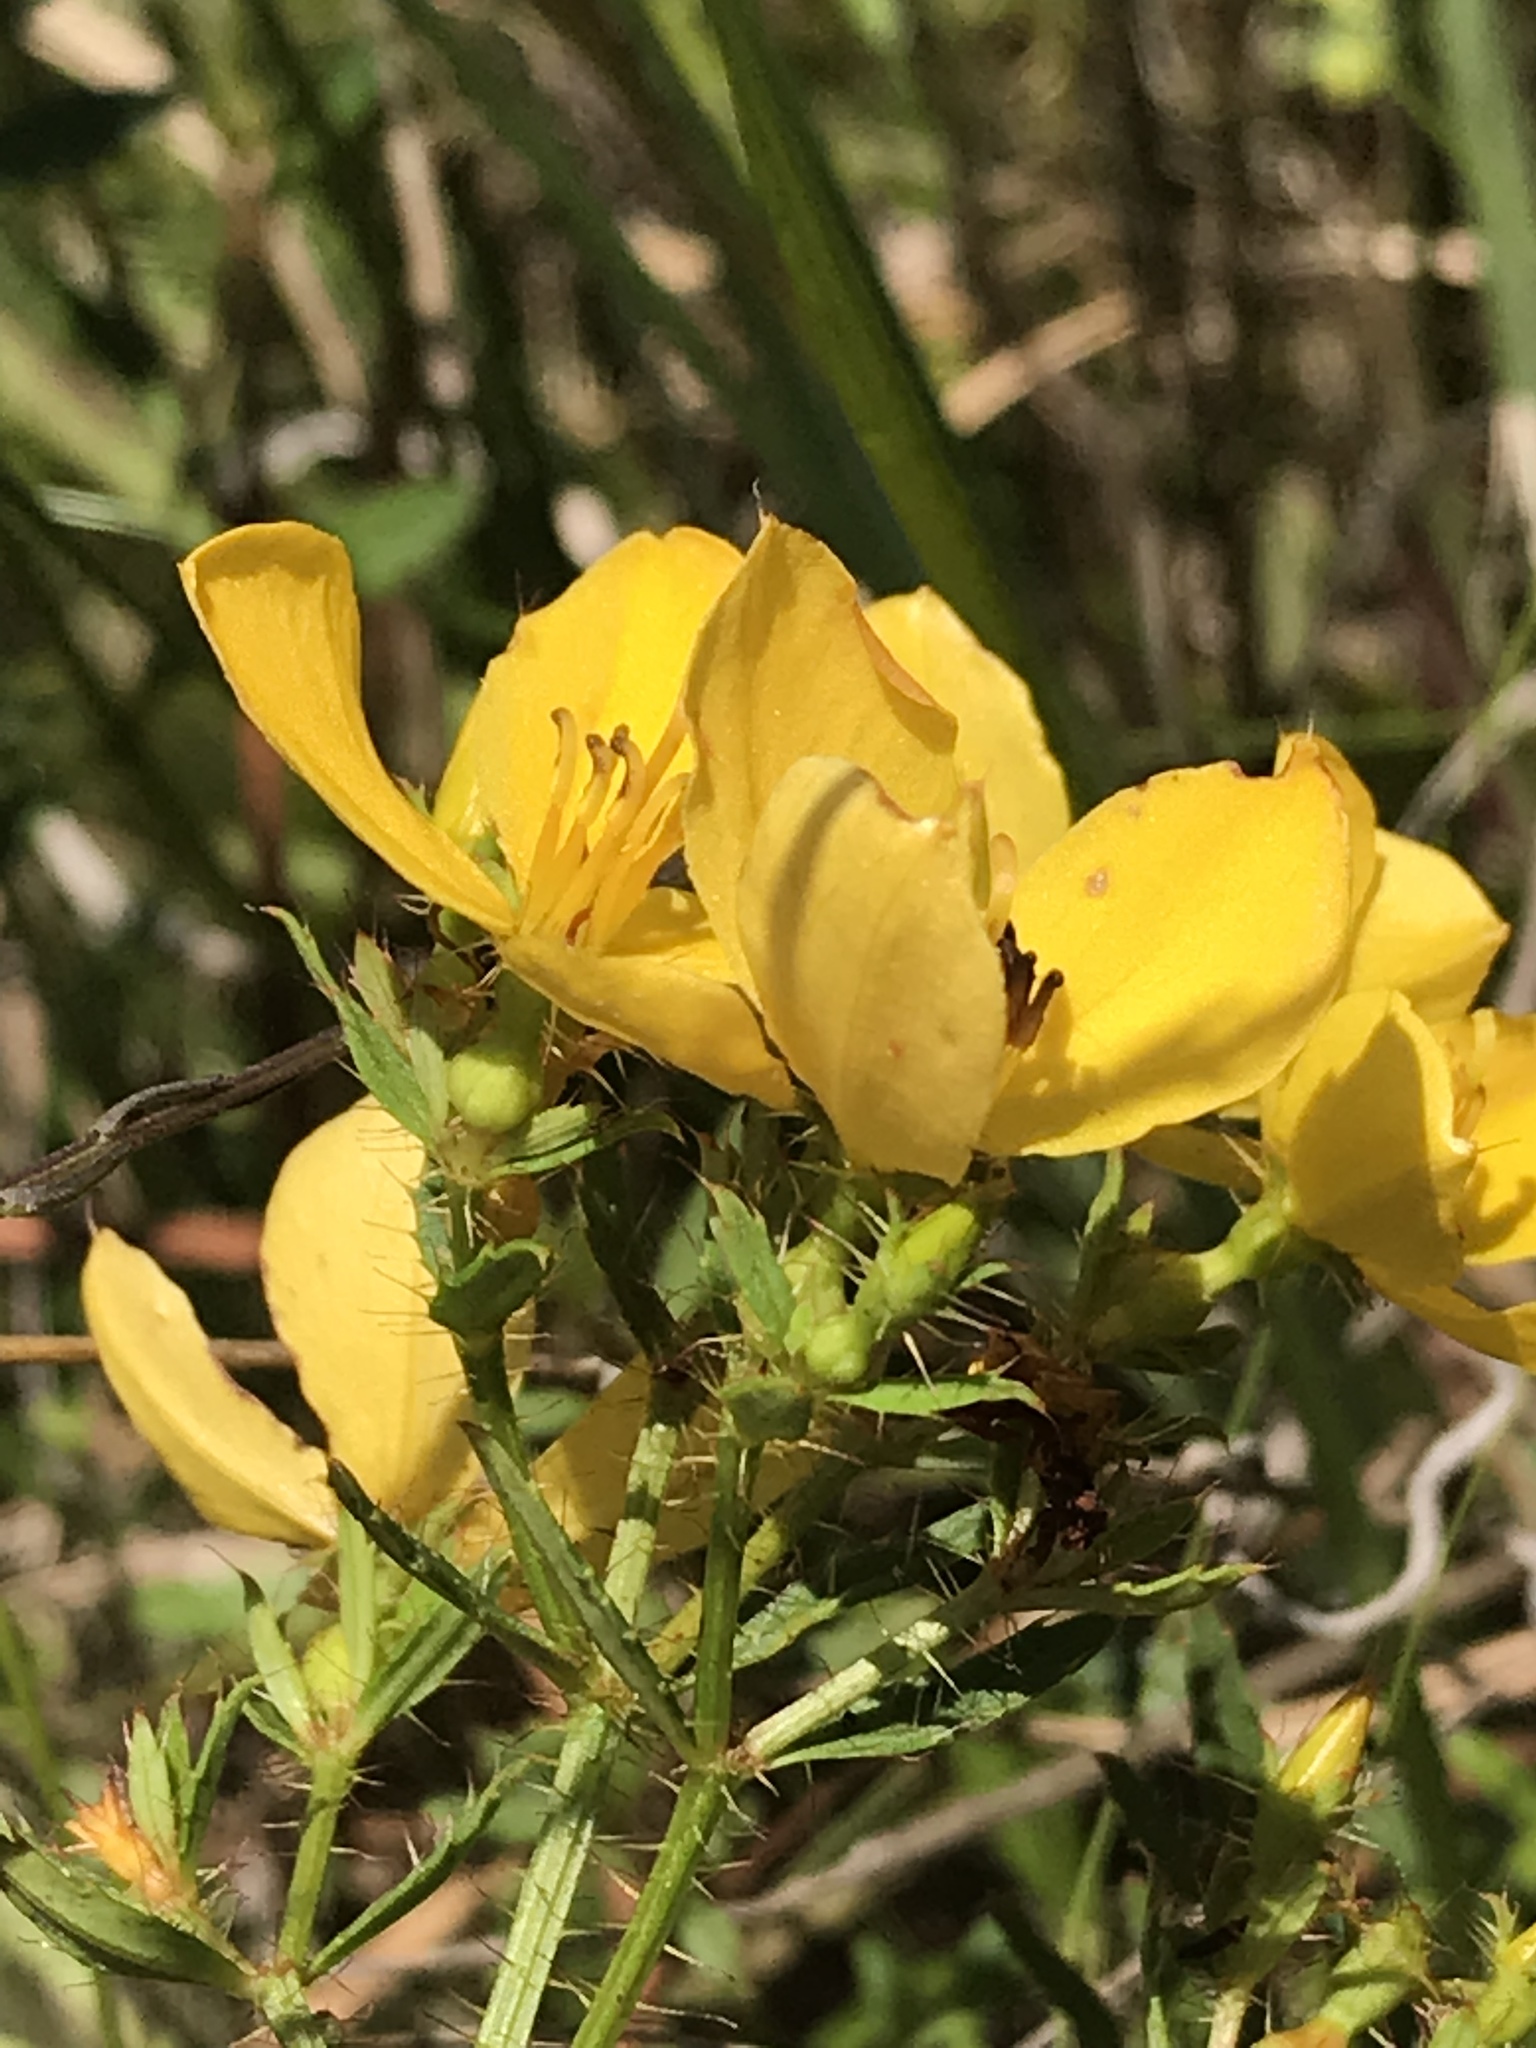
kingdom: Plantae
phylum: Tracheophyta
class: Magnoliopsida
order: Myrtales
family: Melastomataceae
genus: Rhexia
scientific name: Rhexia lutea
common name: Golden meadow-beauty
